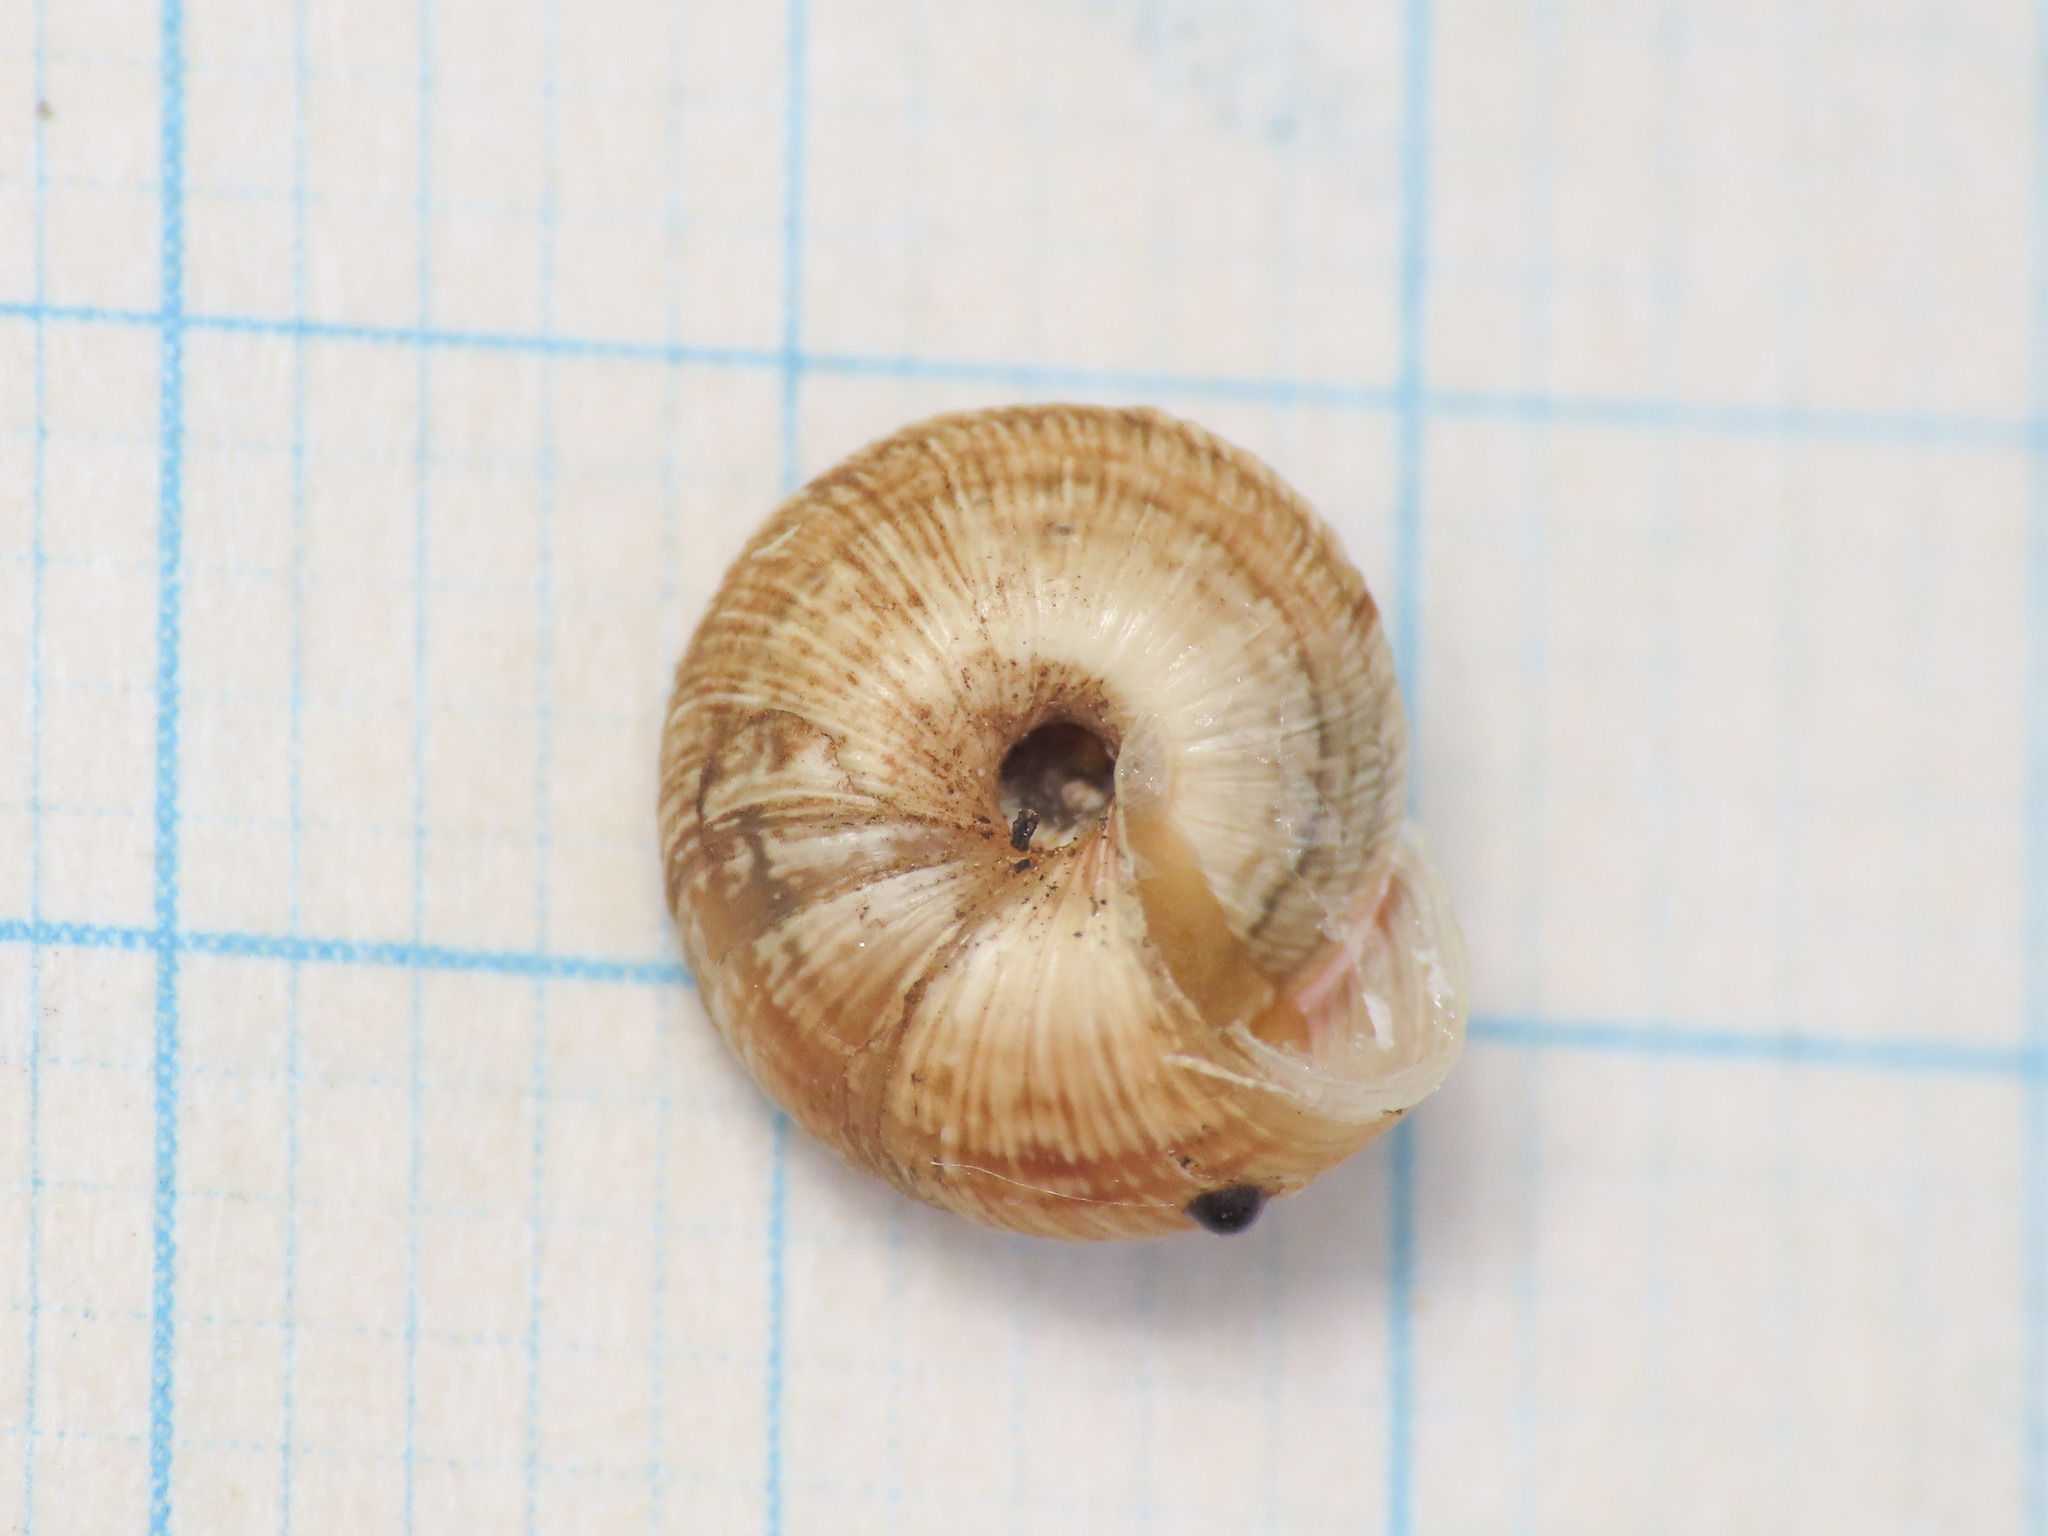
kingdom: Animalia
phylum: Mollusca
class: Gastropoda
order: Stylommatophora
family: Geomitridae
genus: Cernuella
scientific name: Cernuella cisalpina
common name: Maritime gardensnail
